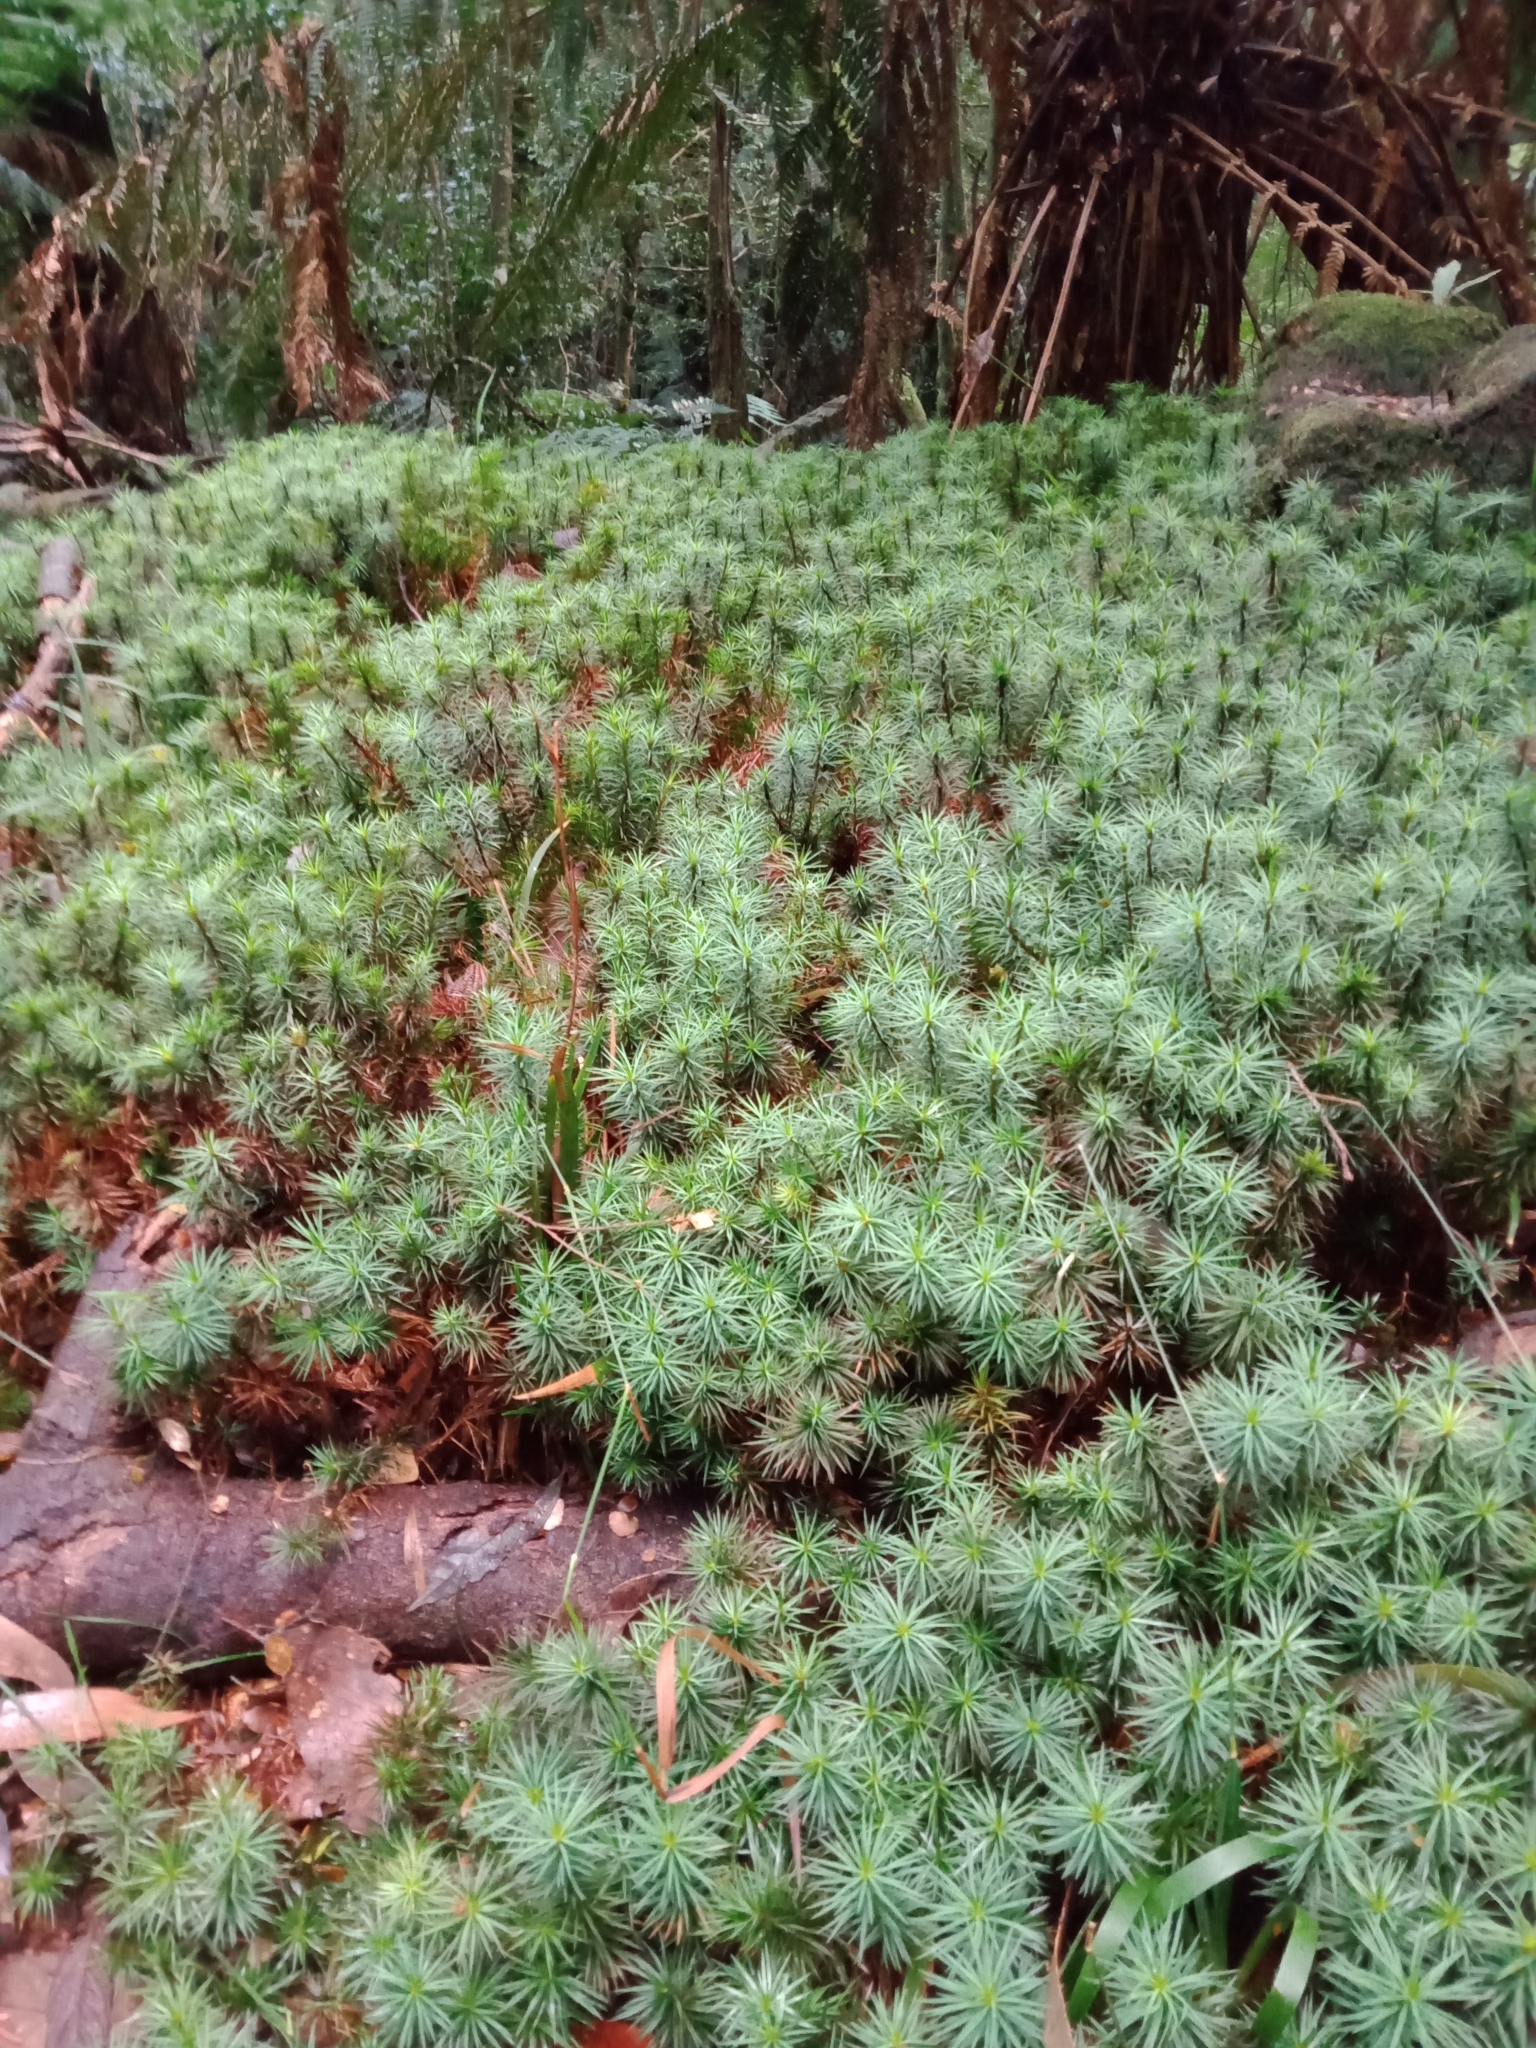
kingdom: Plantae
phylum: Bryophyta
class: Polytrichopsida
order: Polytrichales
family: Polytrichaceae
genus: Dawsonia
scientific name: Dawsonia superba
